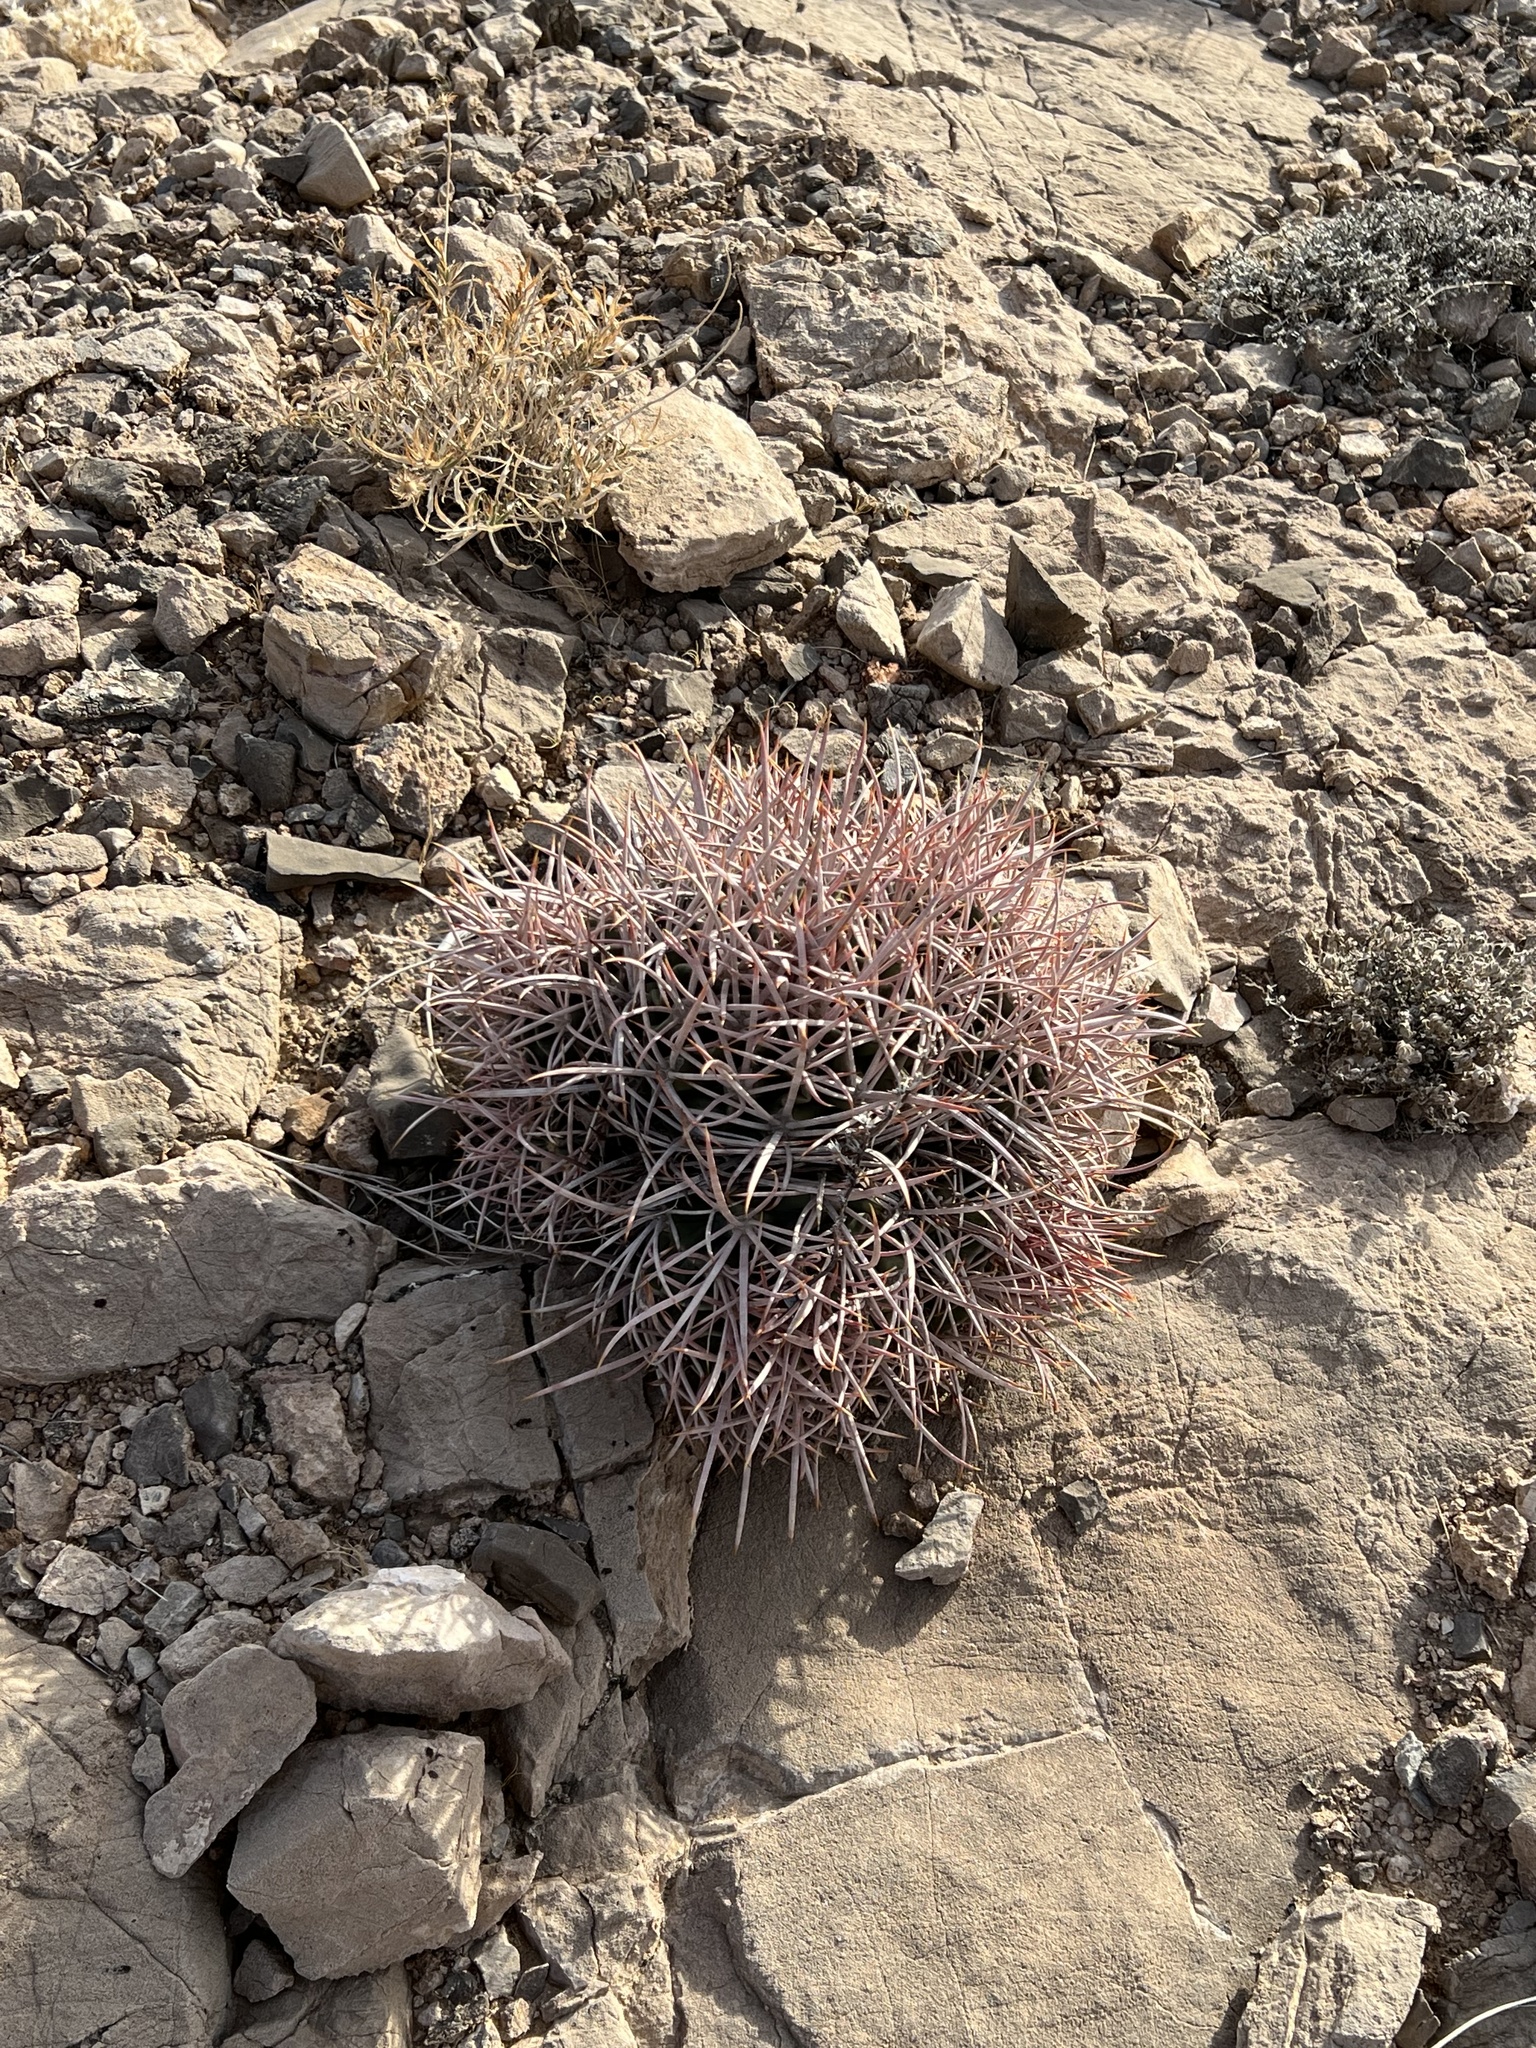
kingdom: Plantae
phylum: Tracheophyta
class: Magnoliopsida
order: Caryophyllales
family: Cactaceae
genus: Echinocactus
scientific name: Echinocactus polycephalus
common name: Cottontop cactus
